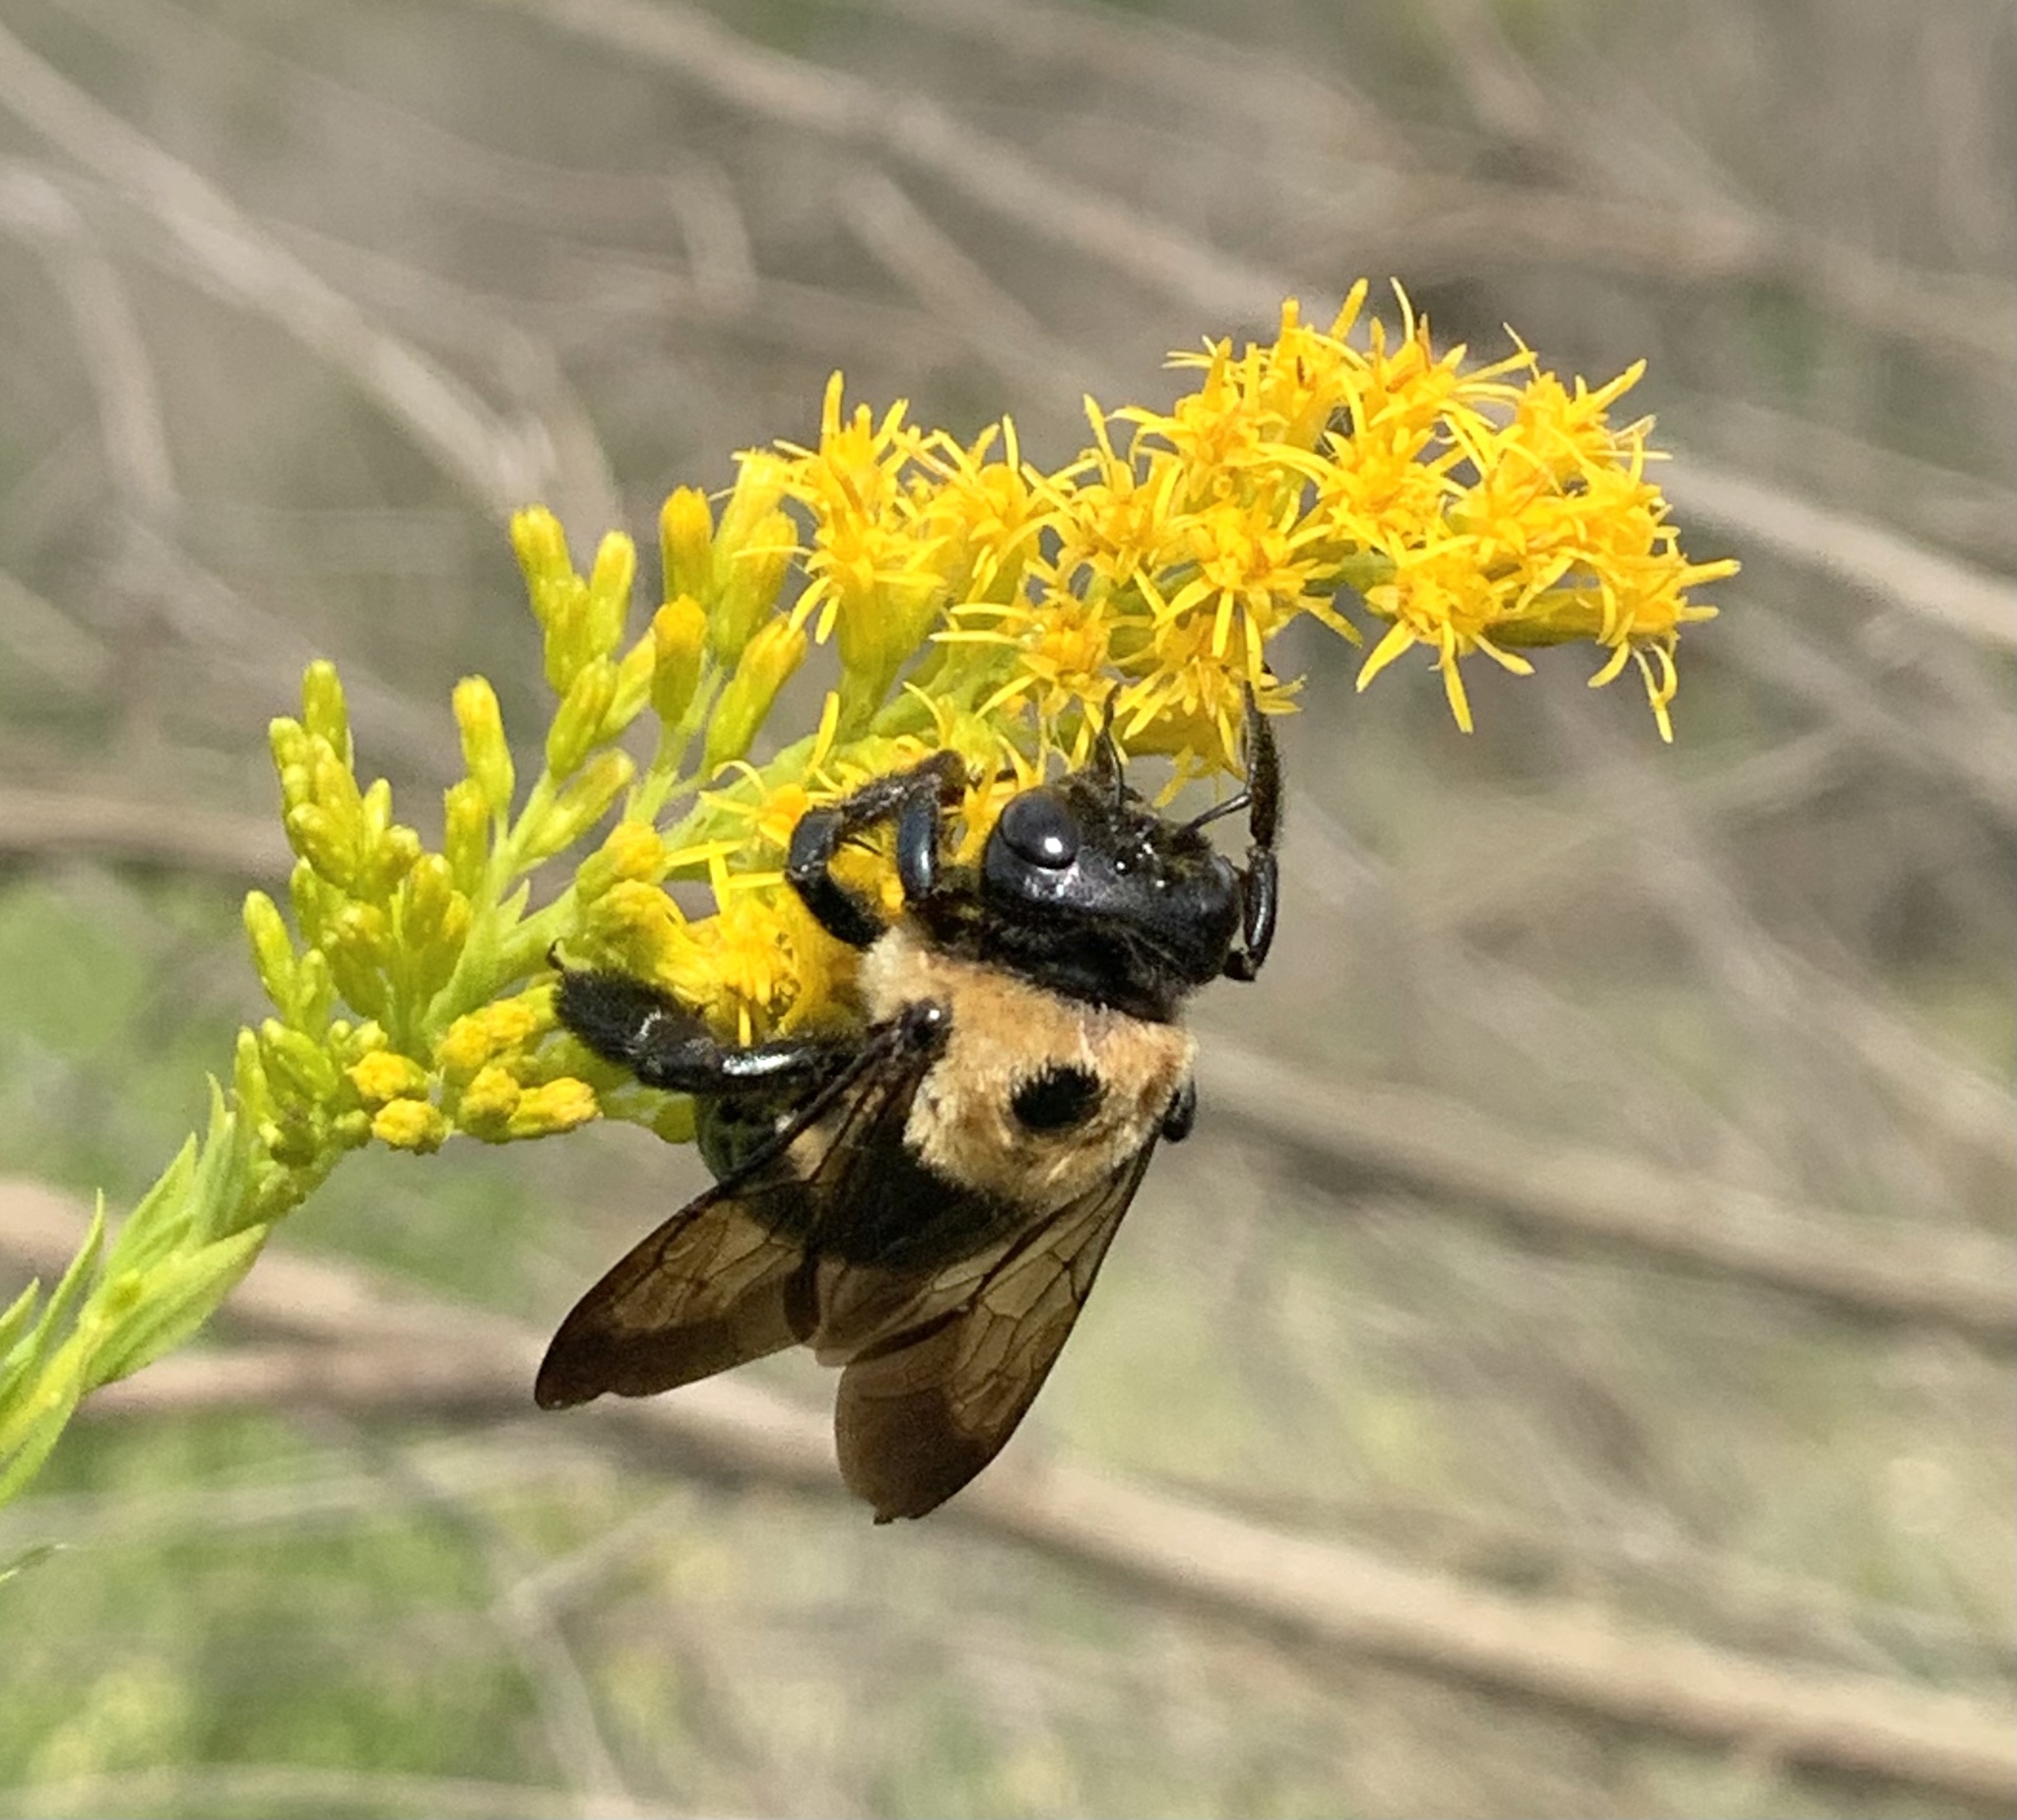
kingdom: Animalia
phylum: Arthropoda
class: Insecta
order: Hymenoptera
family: Apidae
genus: Xylocopa
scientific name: Xylocopa virginica
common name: Carpenter bee
